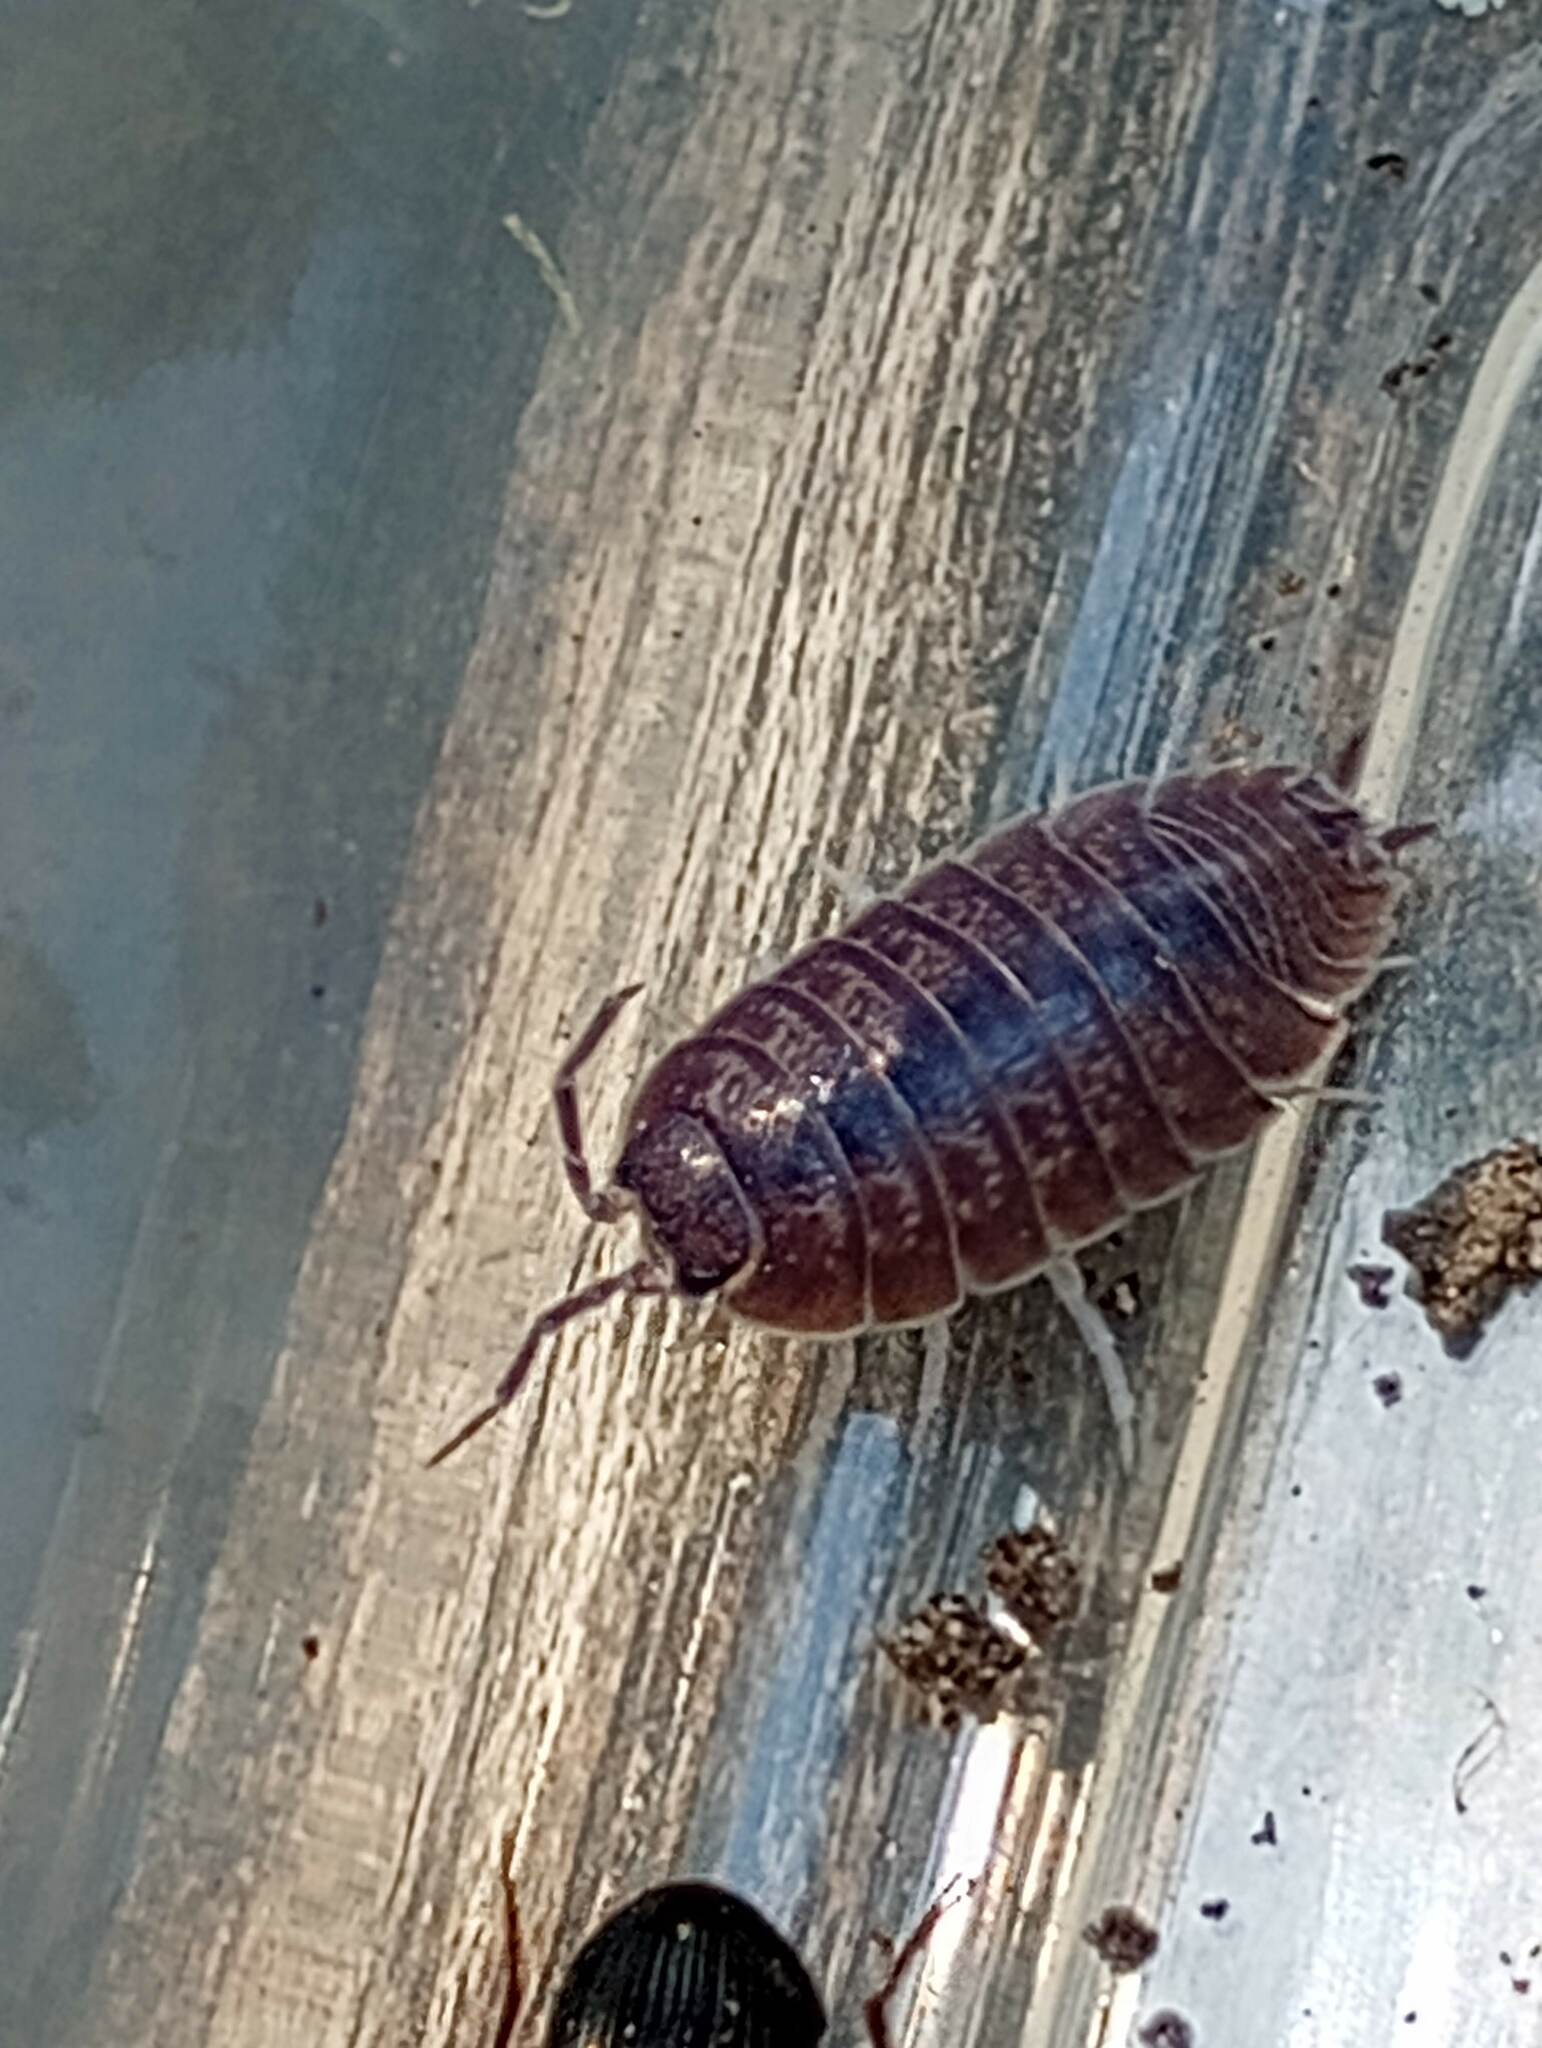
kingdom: Animalia
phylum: Arthropoda
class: Malacostraca
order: Isopoda
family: Porcellionidae
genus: Porcellio
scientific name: Porcellio laevis
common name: Swift woodlouse
